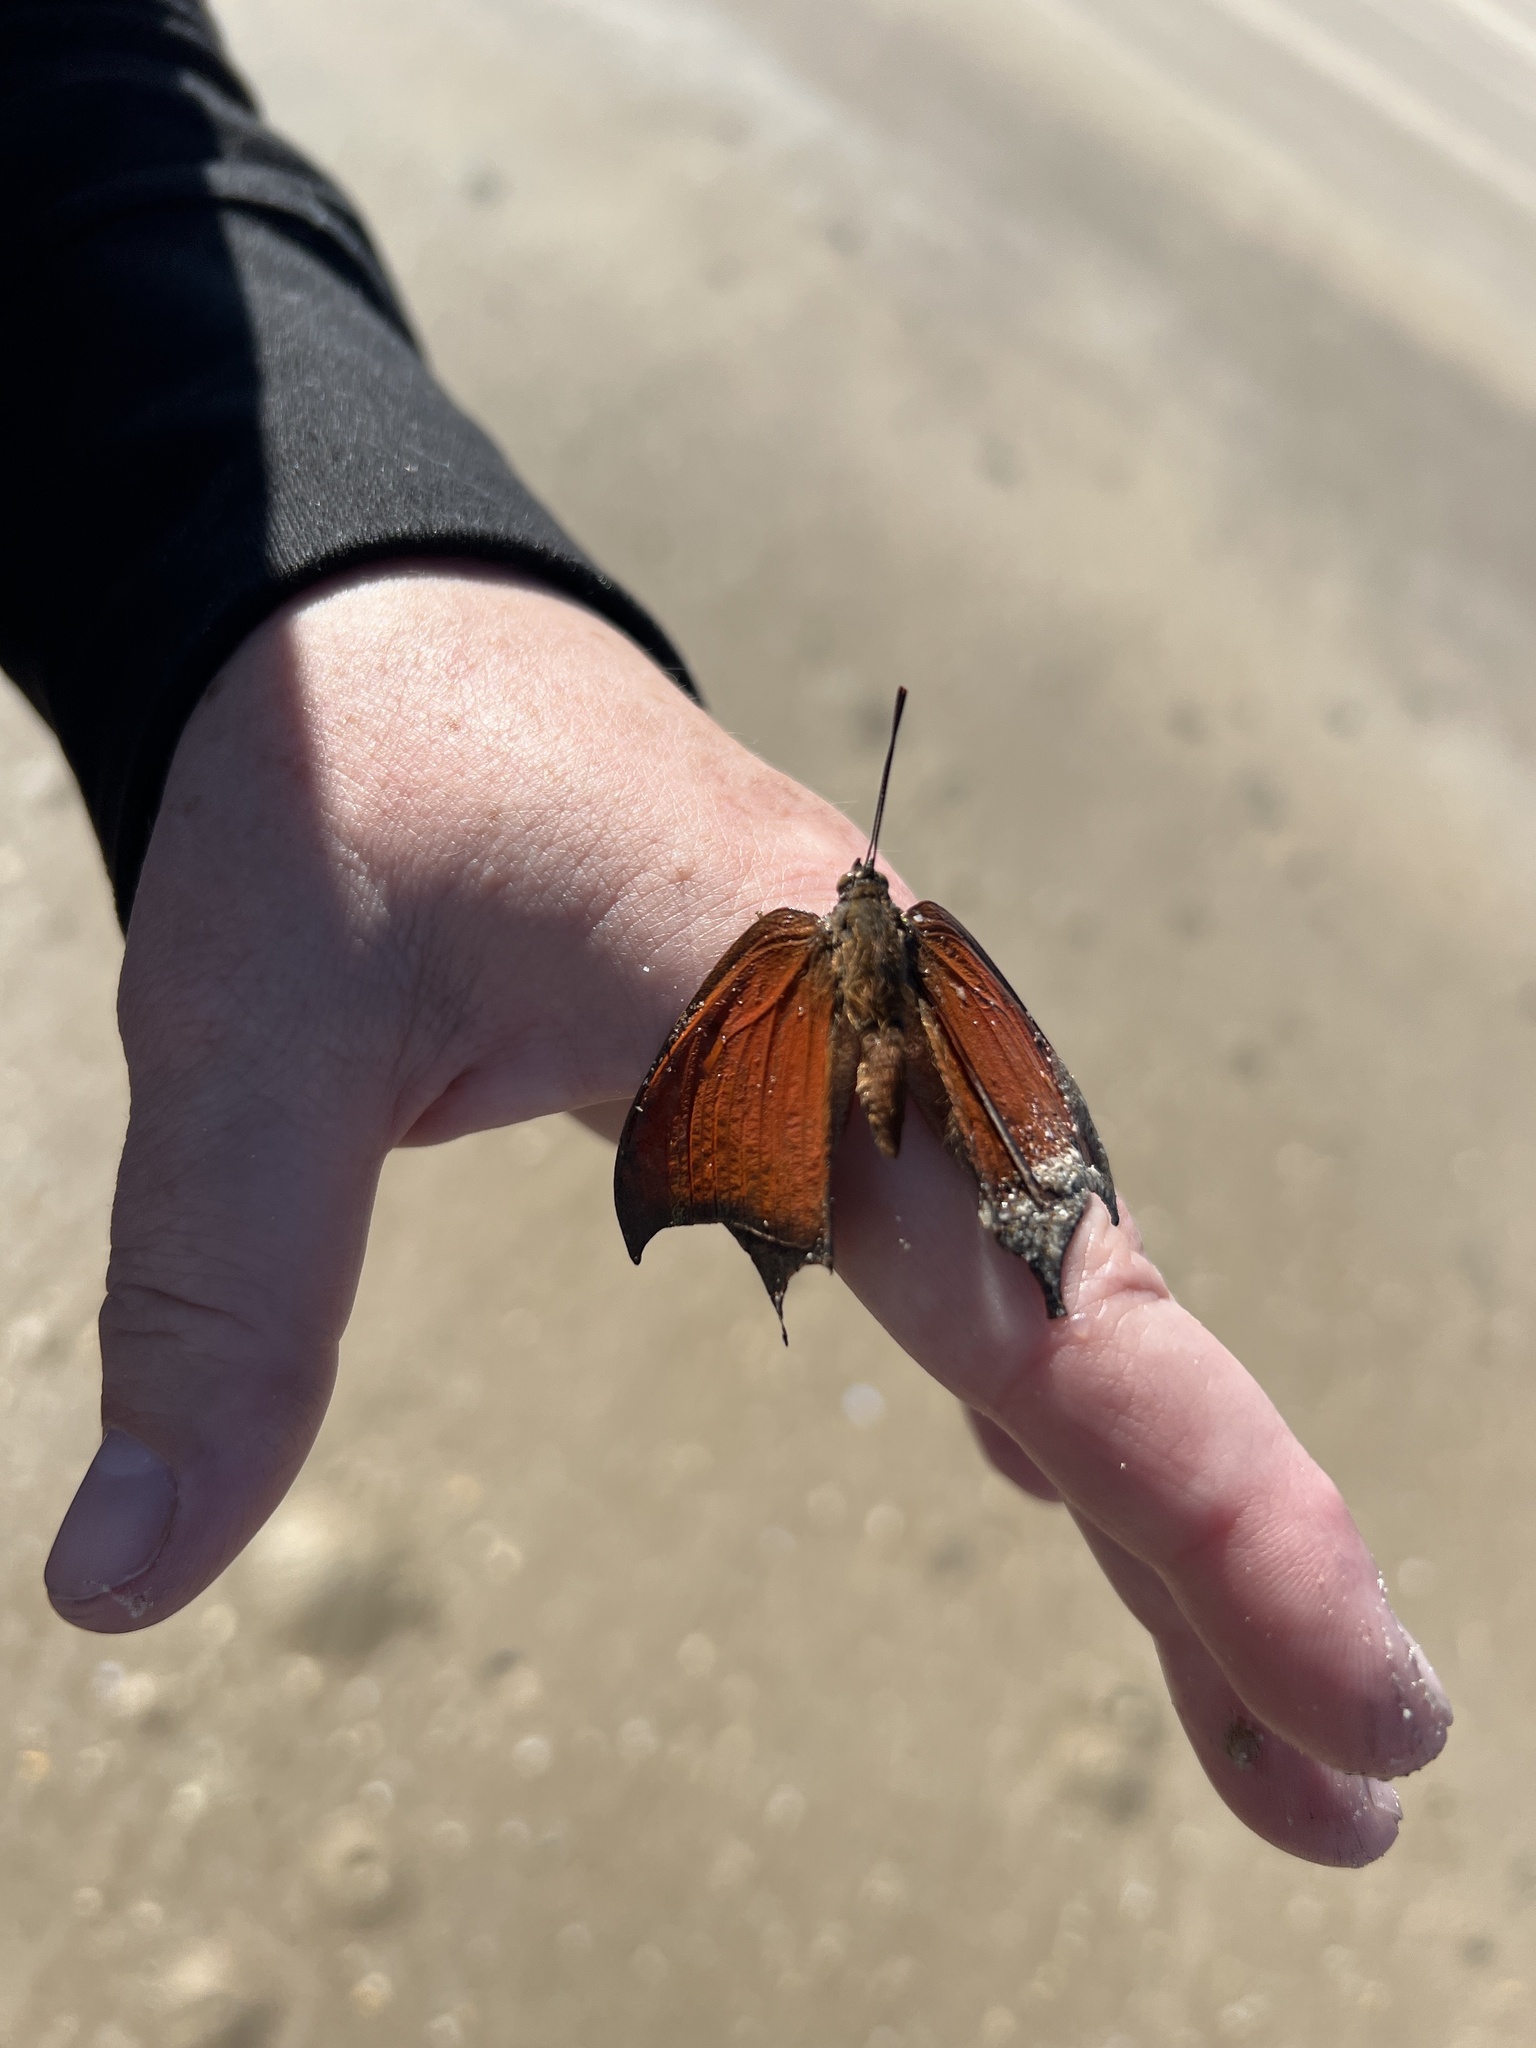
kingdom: Animalia
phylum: Arthropoda
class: Insecta
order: Lepidoptera
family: Nymphalidae
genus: Anaea
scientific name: Anaea andria
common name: Goatweed leafwing
